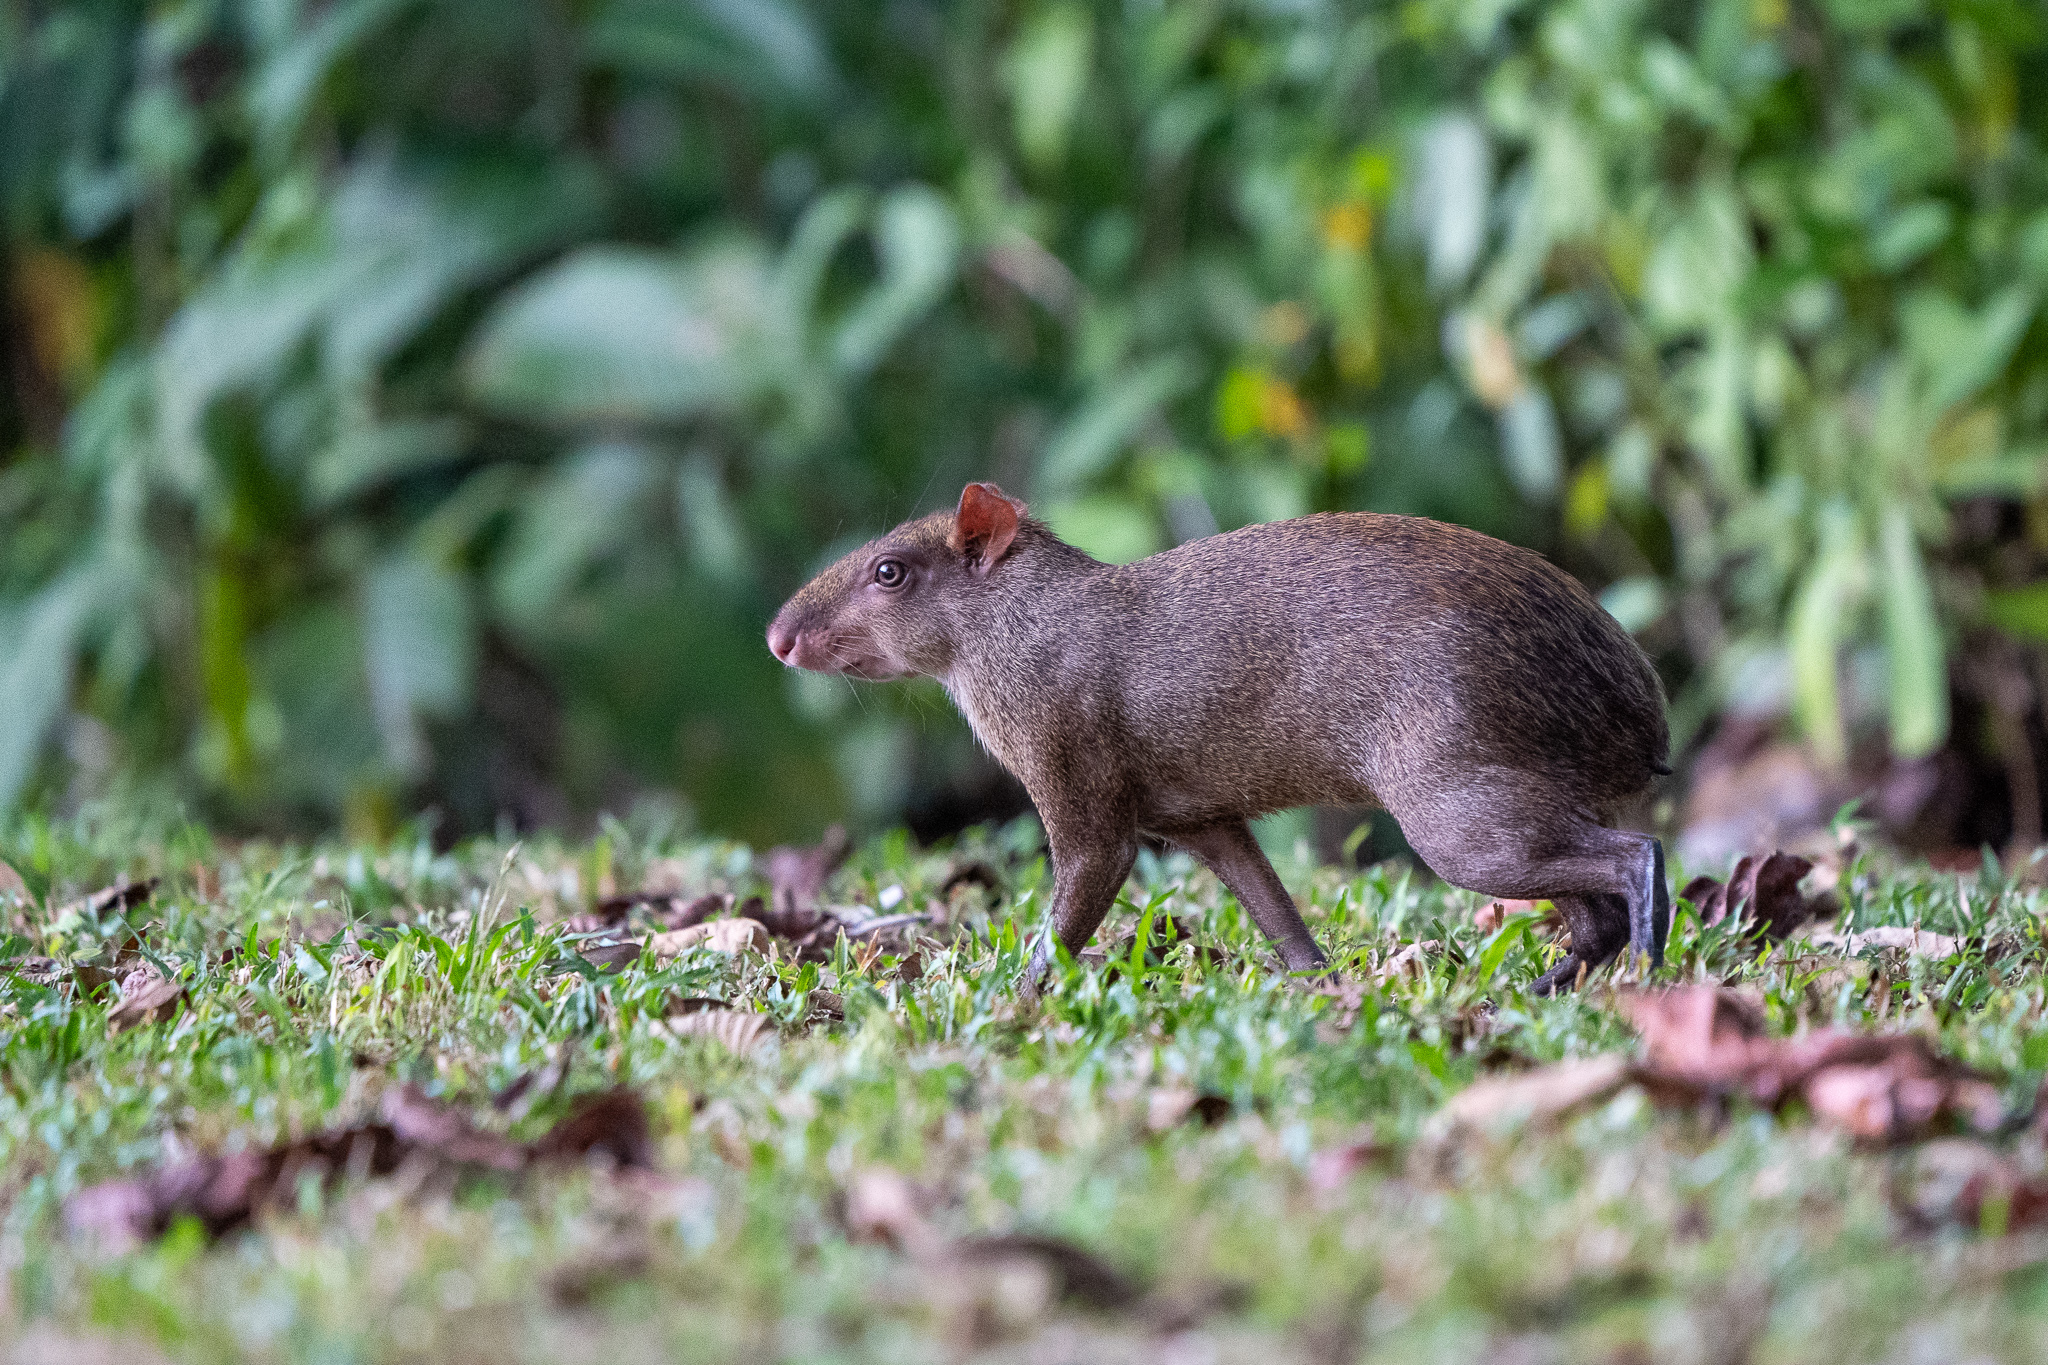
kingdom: Animalia
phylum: Chordata
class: Mammalia
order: Rodentia
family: Dasyproctidae
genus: Dasyprocta
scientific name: Dasyprocta punctata
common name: Central american agouti
